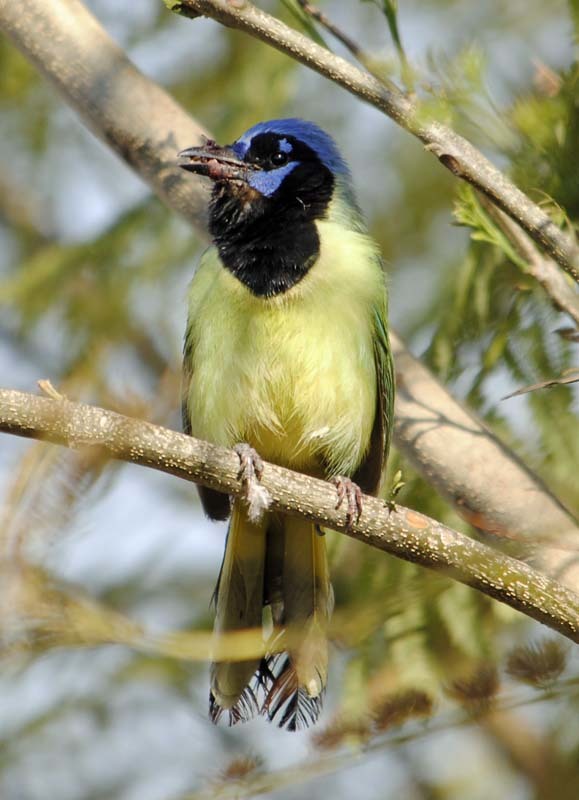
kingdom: Animalia
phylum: Chordata
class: Aves
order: Passeriformes
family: Corvidae
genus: Cyanocorax
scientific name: Cyanocorax yncas
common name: Green jay
